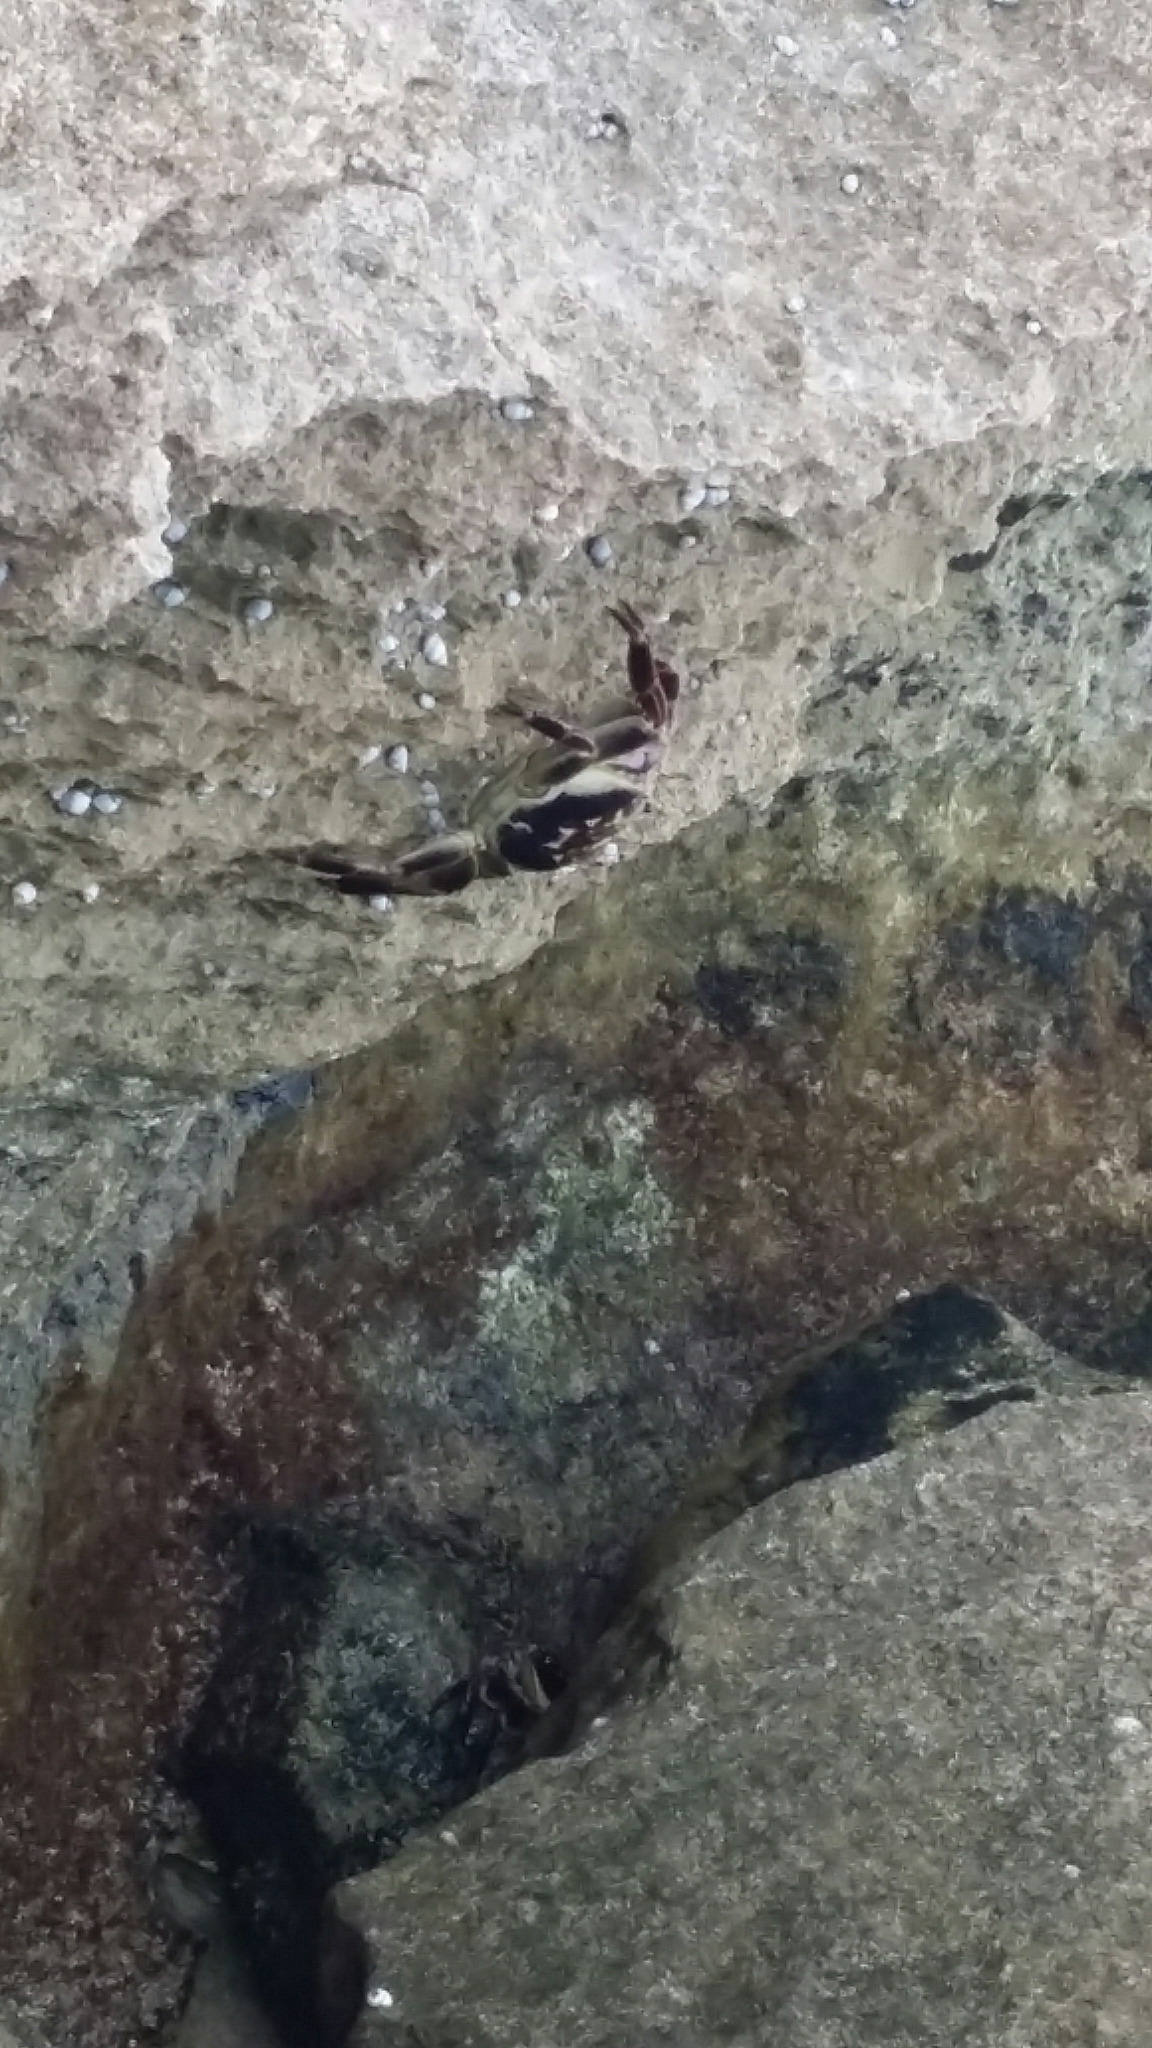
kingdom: Animalia
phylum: Arthropoda
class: Malacostraca
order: Decapoda
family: Grapsidae
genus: Leptograpsus
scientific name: Leptograpsus variegatus
